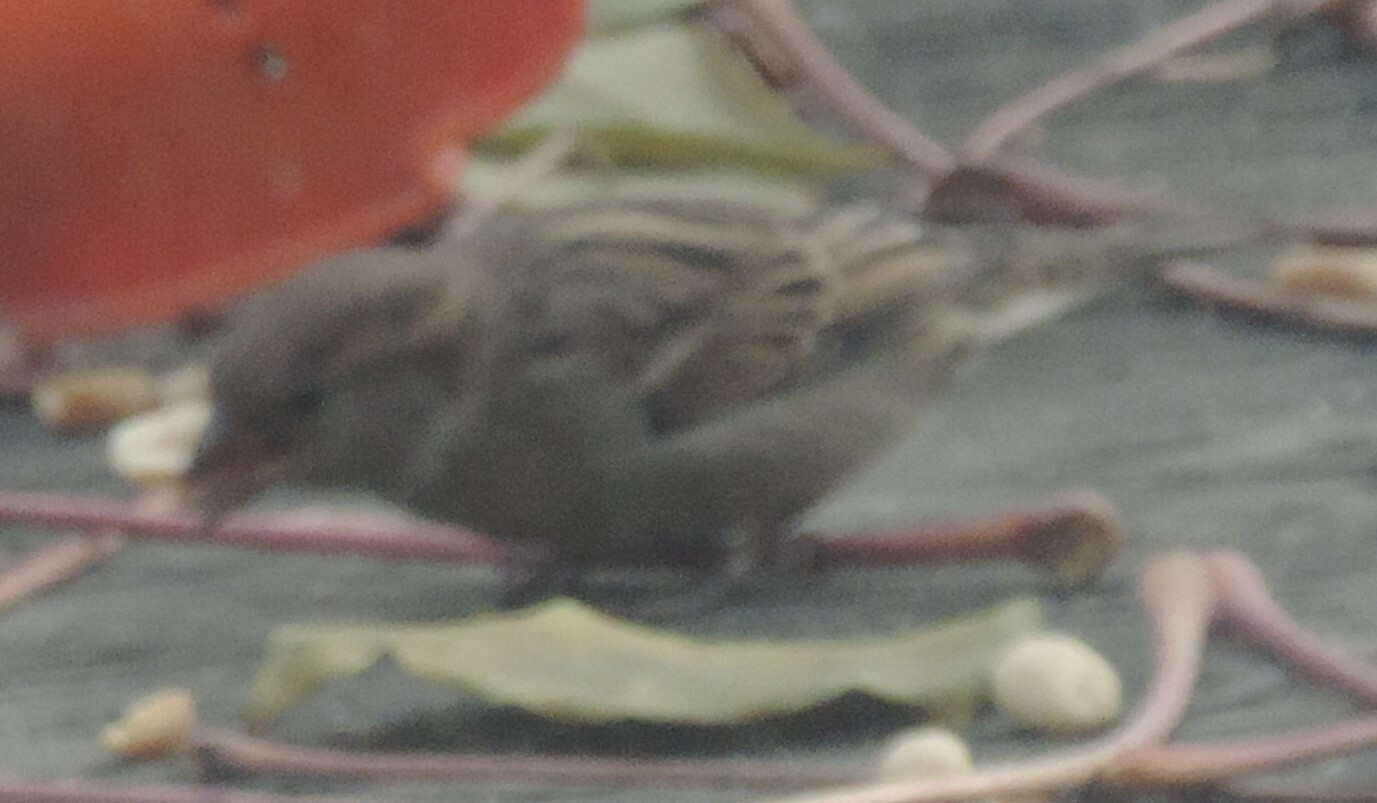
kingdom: Animalia
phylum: Chordata
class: Aves
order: Passeriformes
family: Passeridae
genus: Passer
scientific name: Passer domesticus
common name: House sparrow
